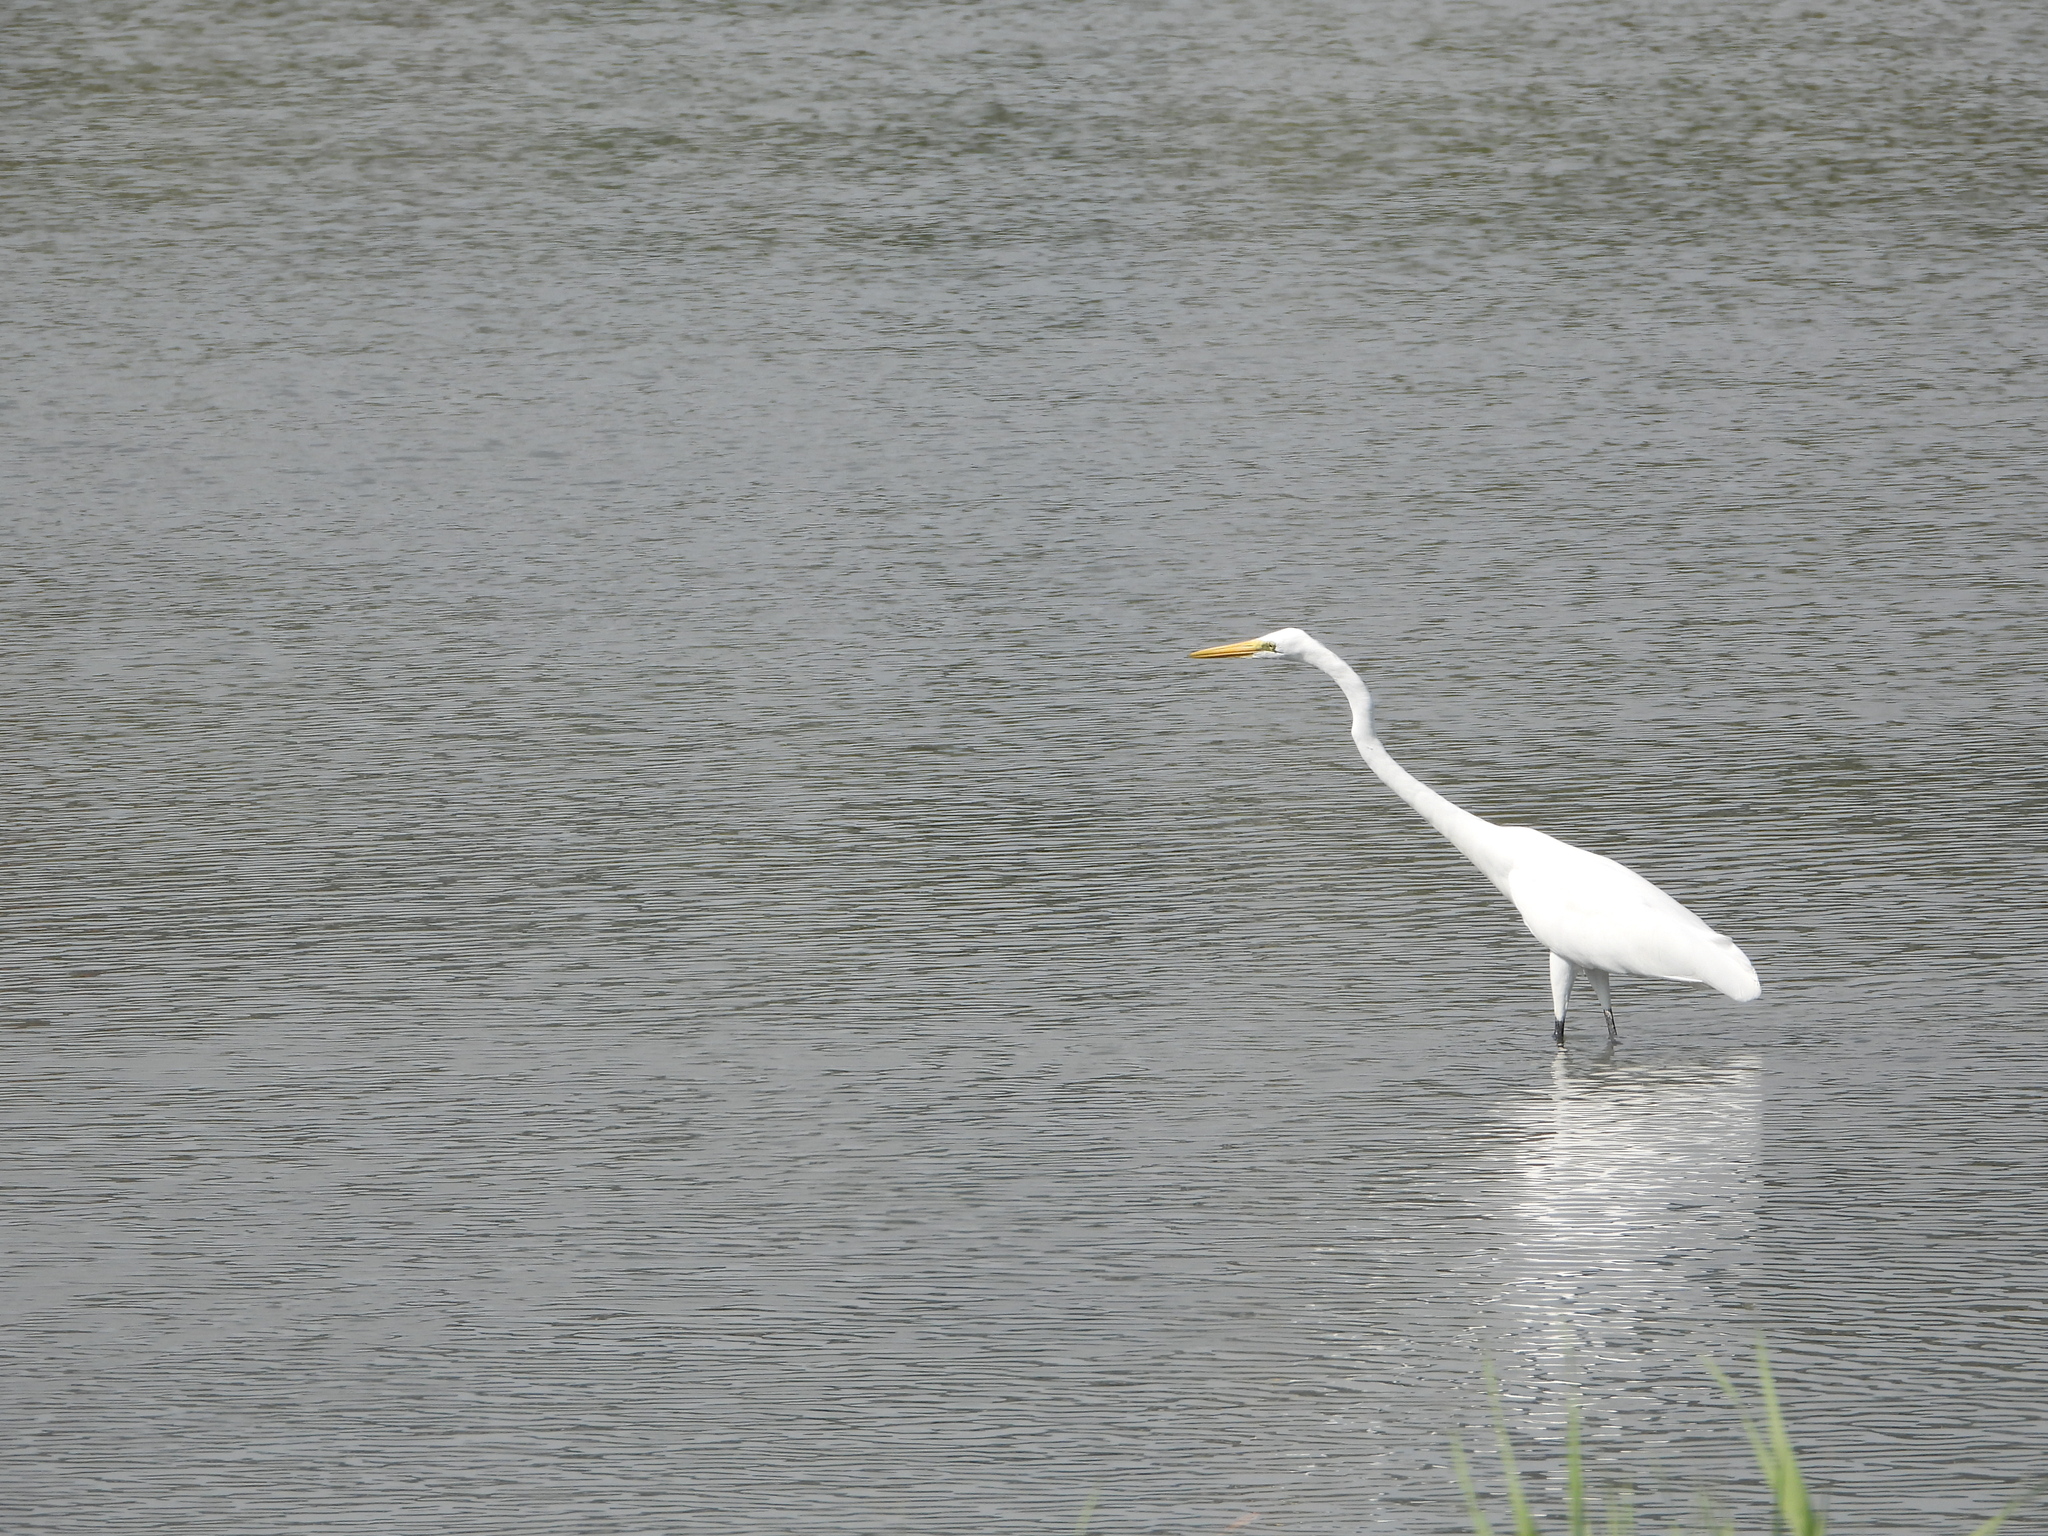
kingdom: Animalia
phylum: Chordata
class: Aves
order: Pelecaniformes
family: Ardeidae
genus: Ardea
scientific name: Ardea alba
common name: Great egret
